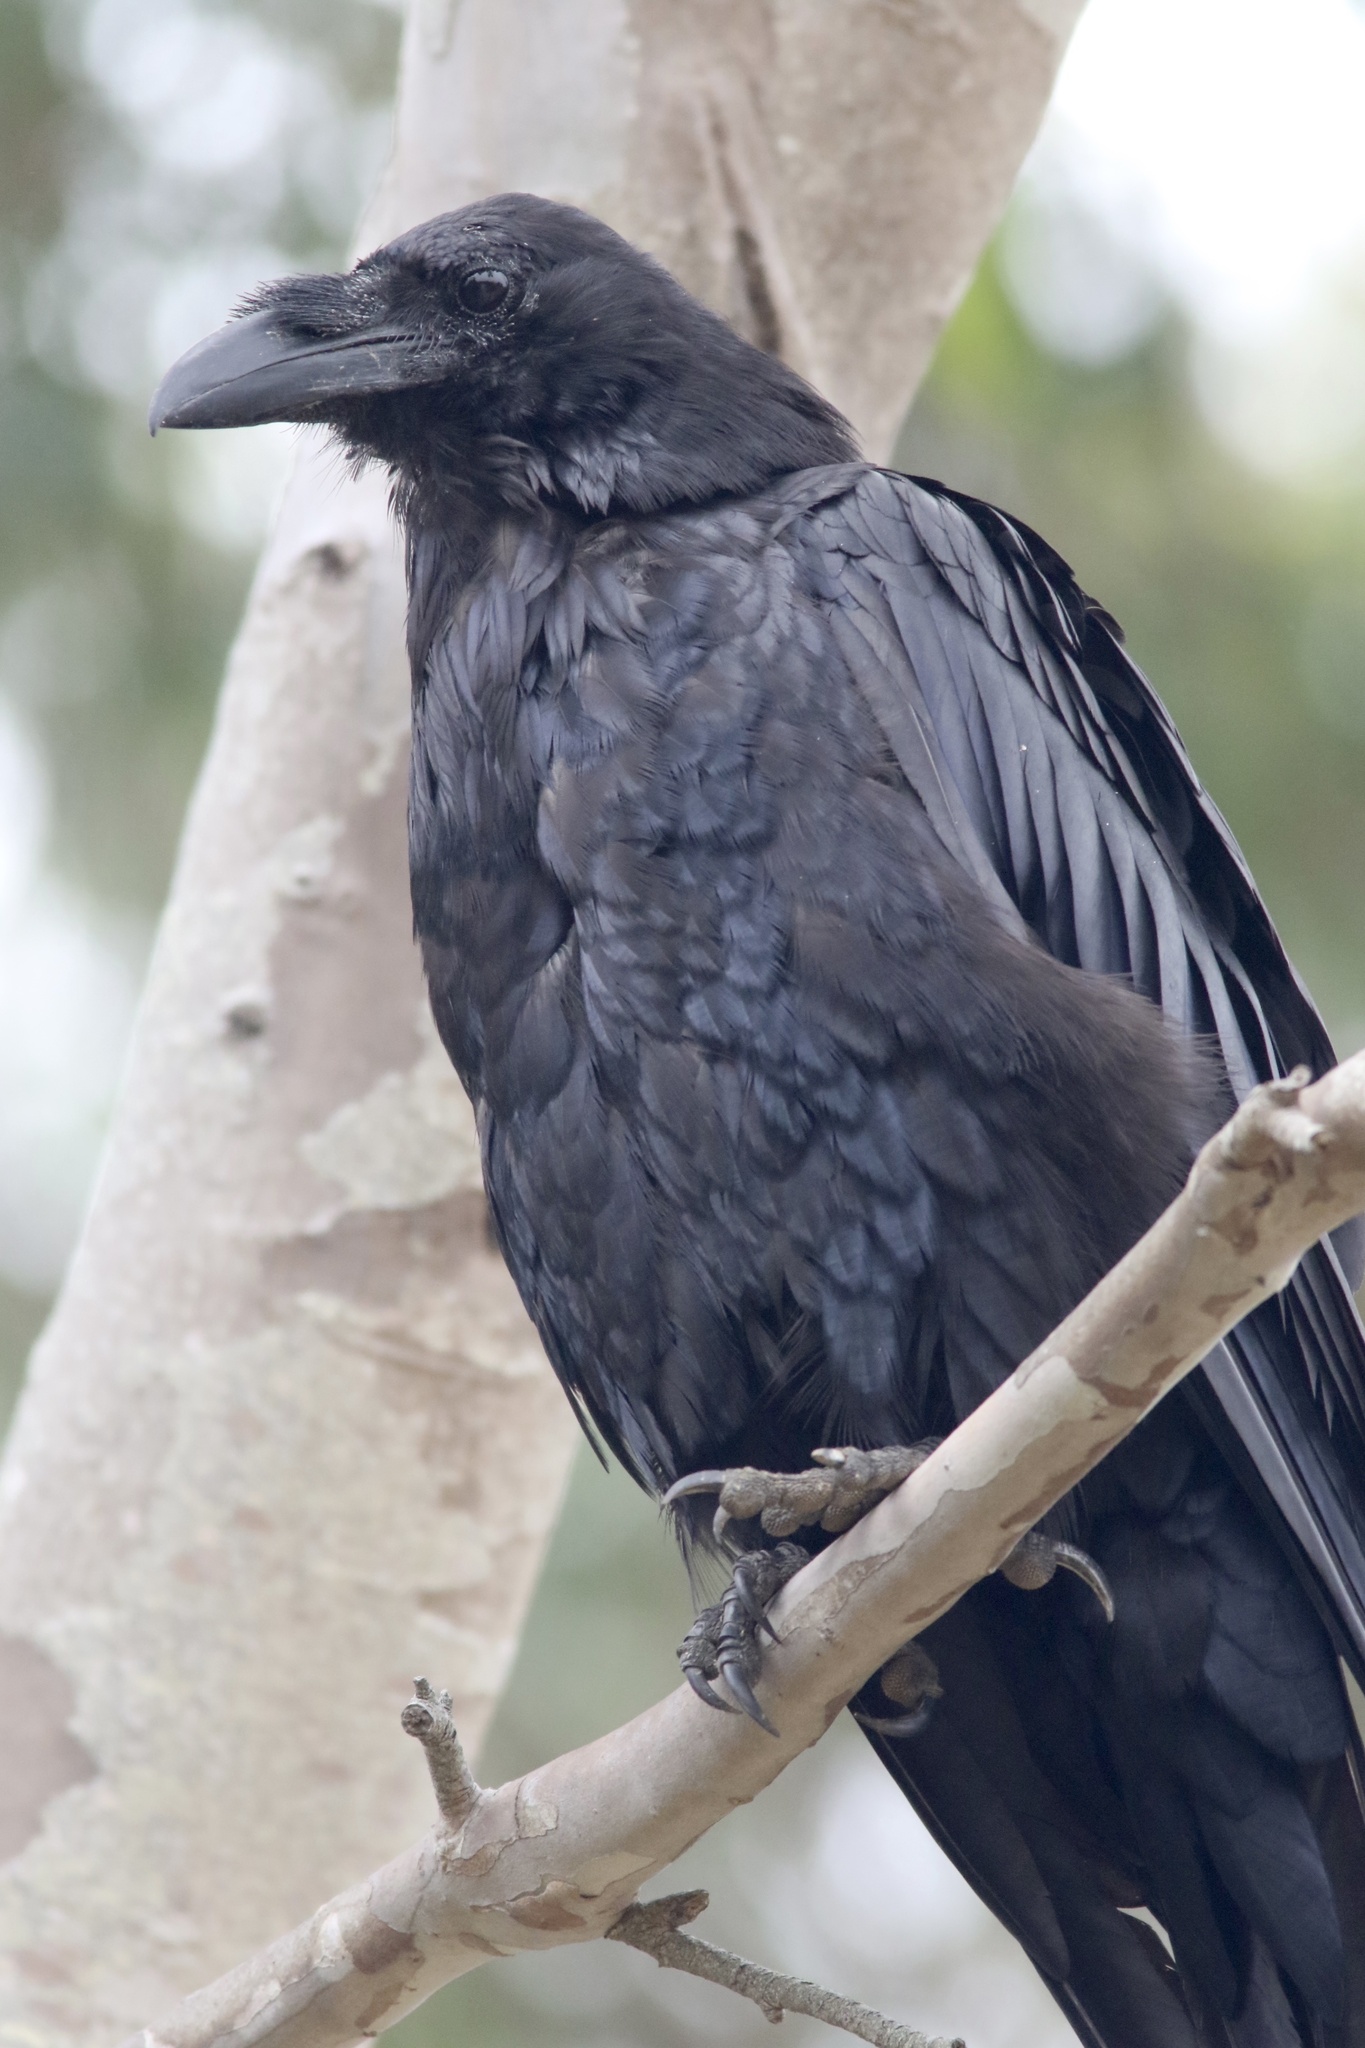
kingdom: Animalia
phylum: Chordata
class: Aves
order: Passeriformes
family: Corvidae
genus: Corvus
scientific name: Corvus corax
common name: Common raven
